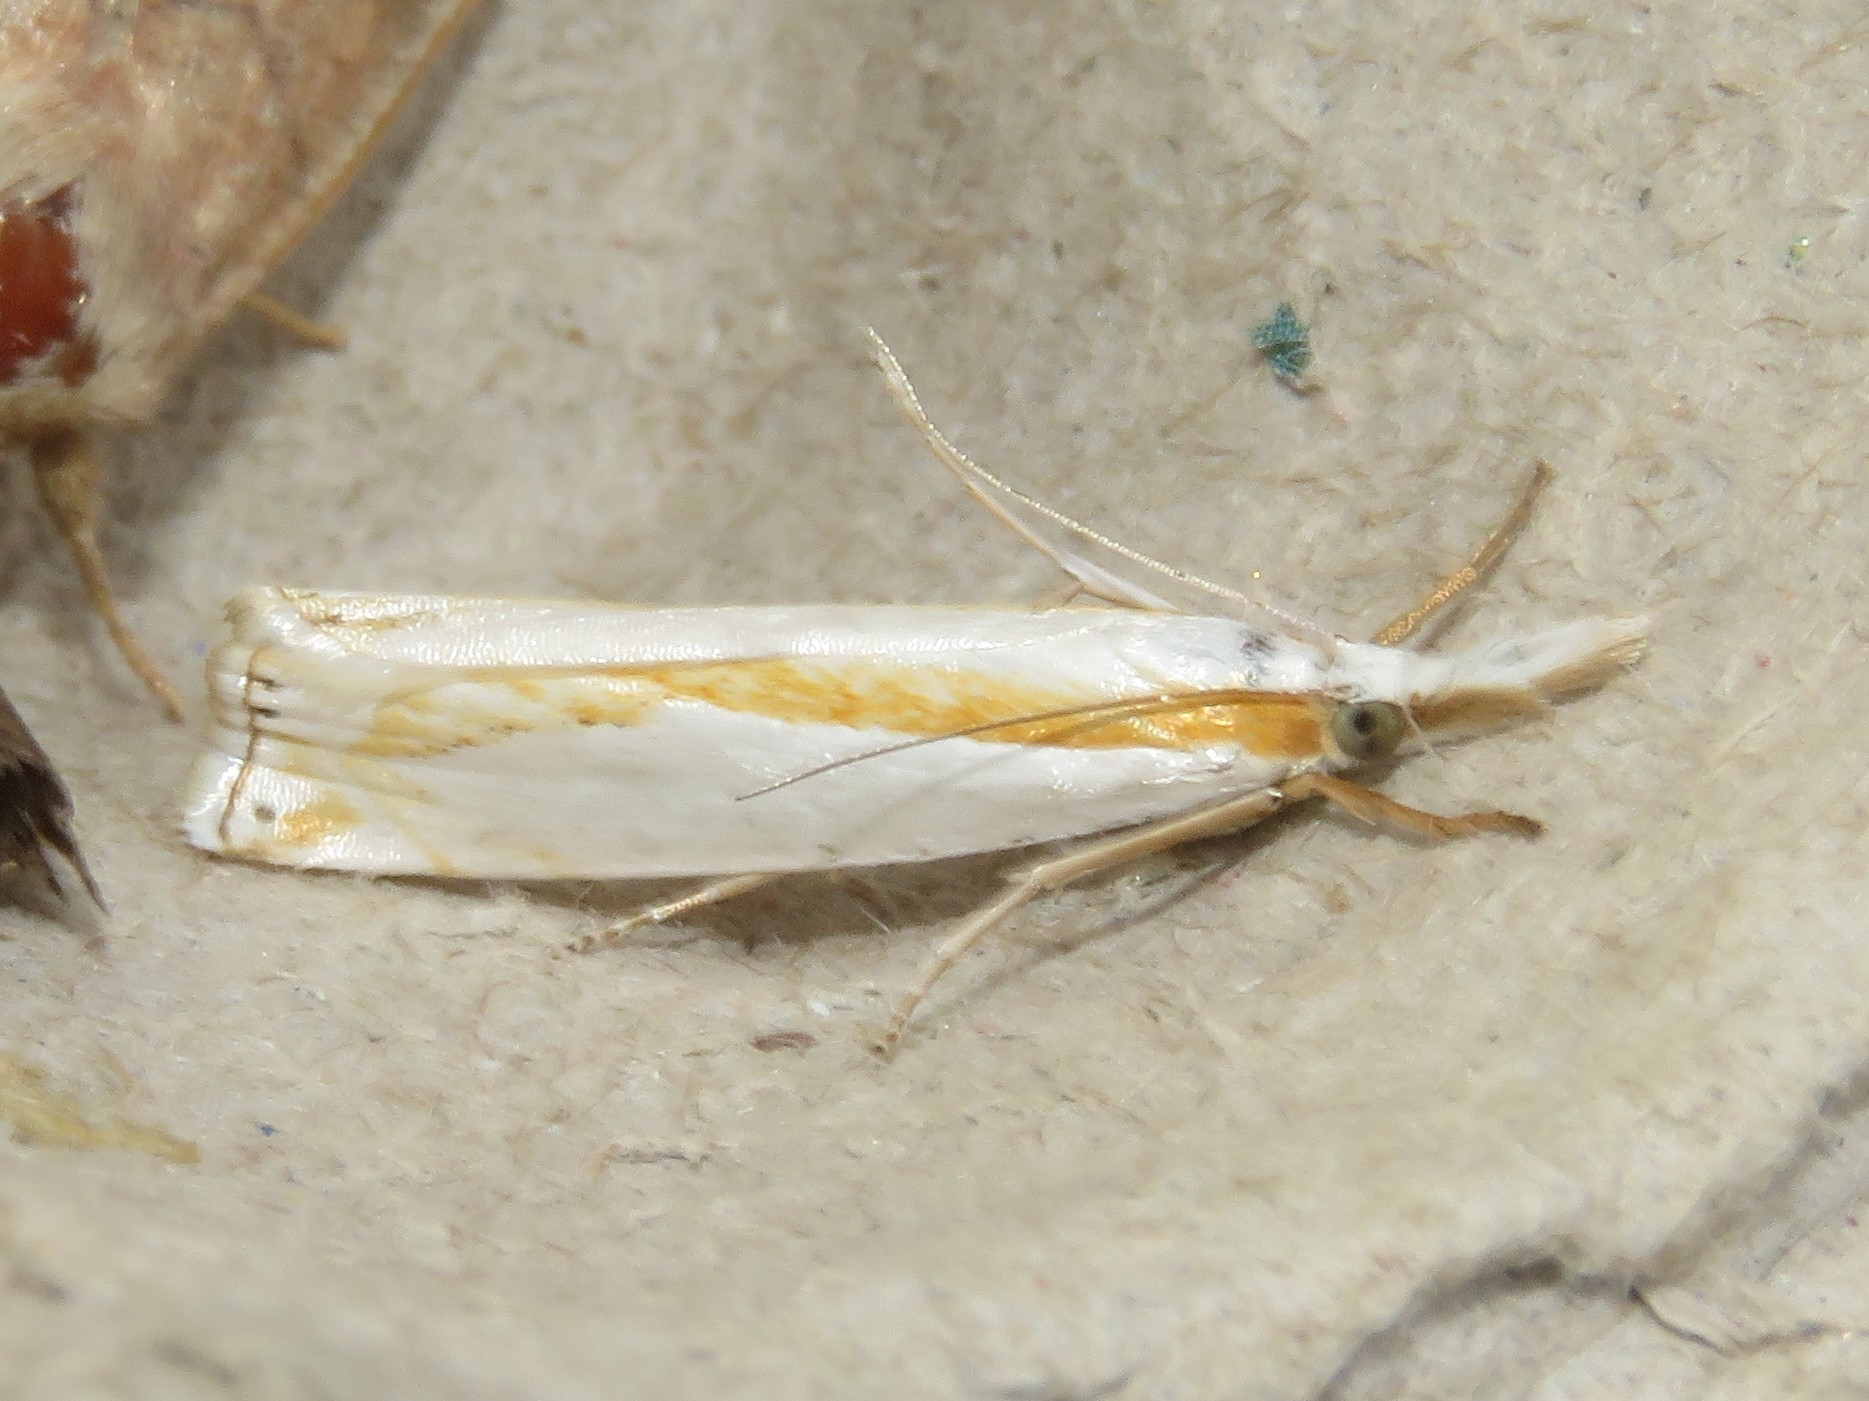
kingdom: Animalia
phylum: Arthropoda
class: Insecta
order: Lepidoptera
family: Crambidae
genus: Crambus
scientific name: Crambus girardellus
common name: Girard's grass-veneer
